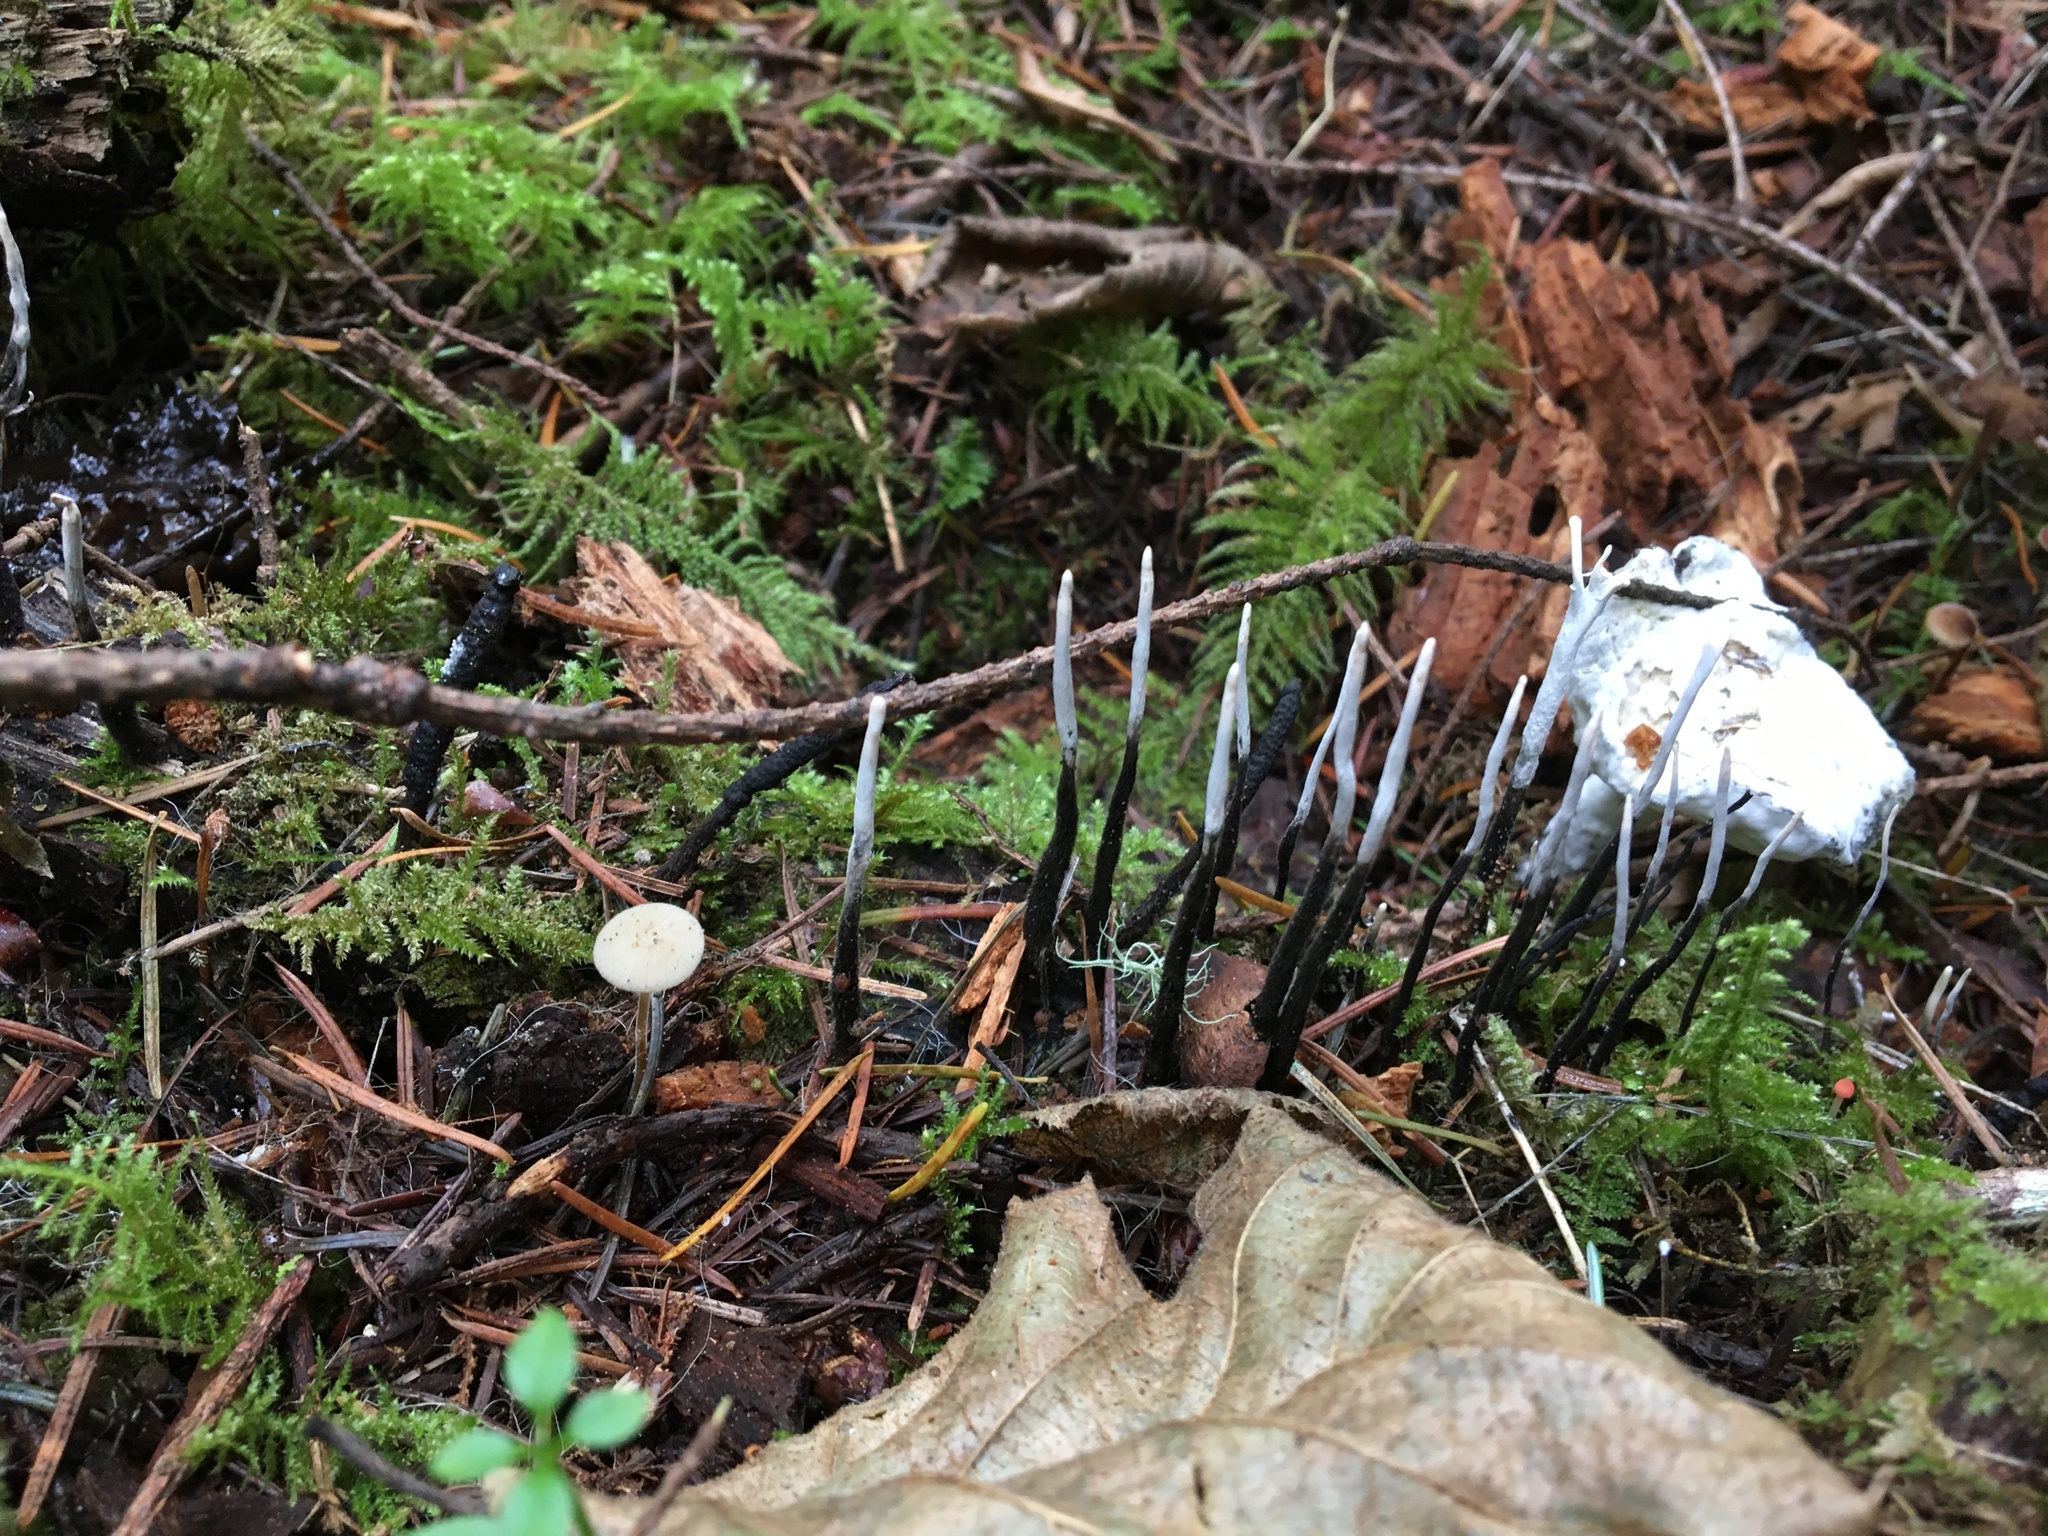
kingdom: Fungi
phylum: Ascomycota
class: Sordariomycetes
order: Xylariales
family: Xylariaceae
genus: Xylaria
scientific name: Xylaria hypoxylon
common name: Candle-snuff fungus
